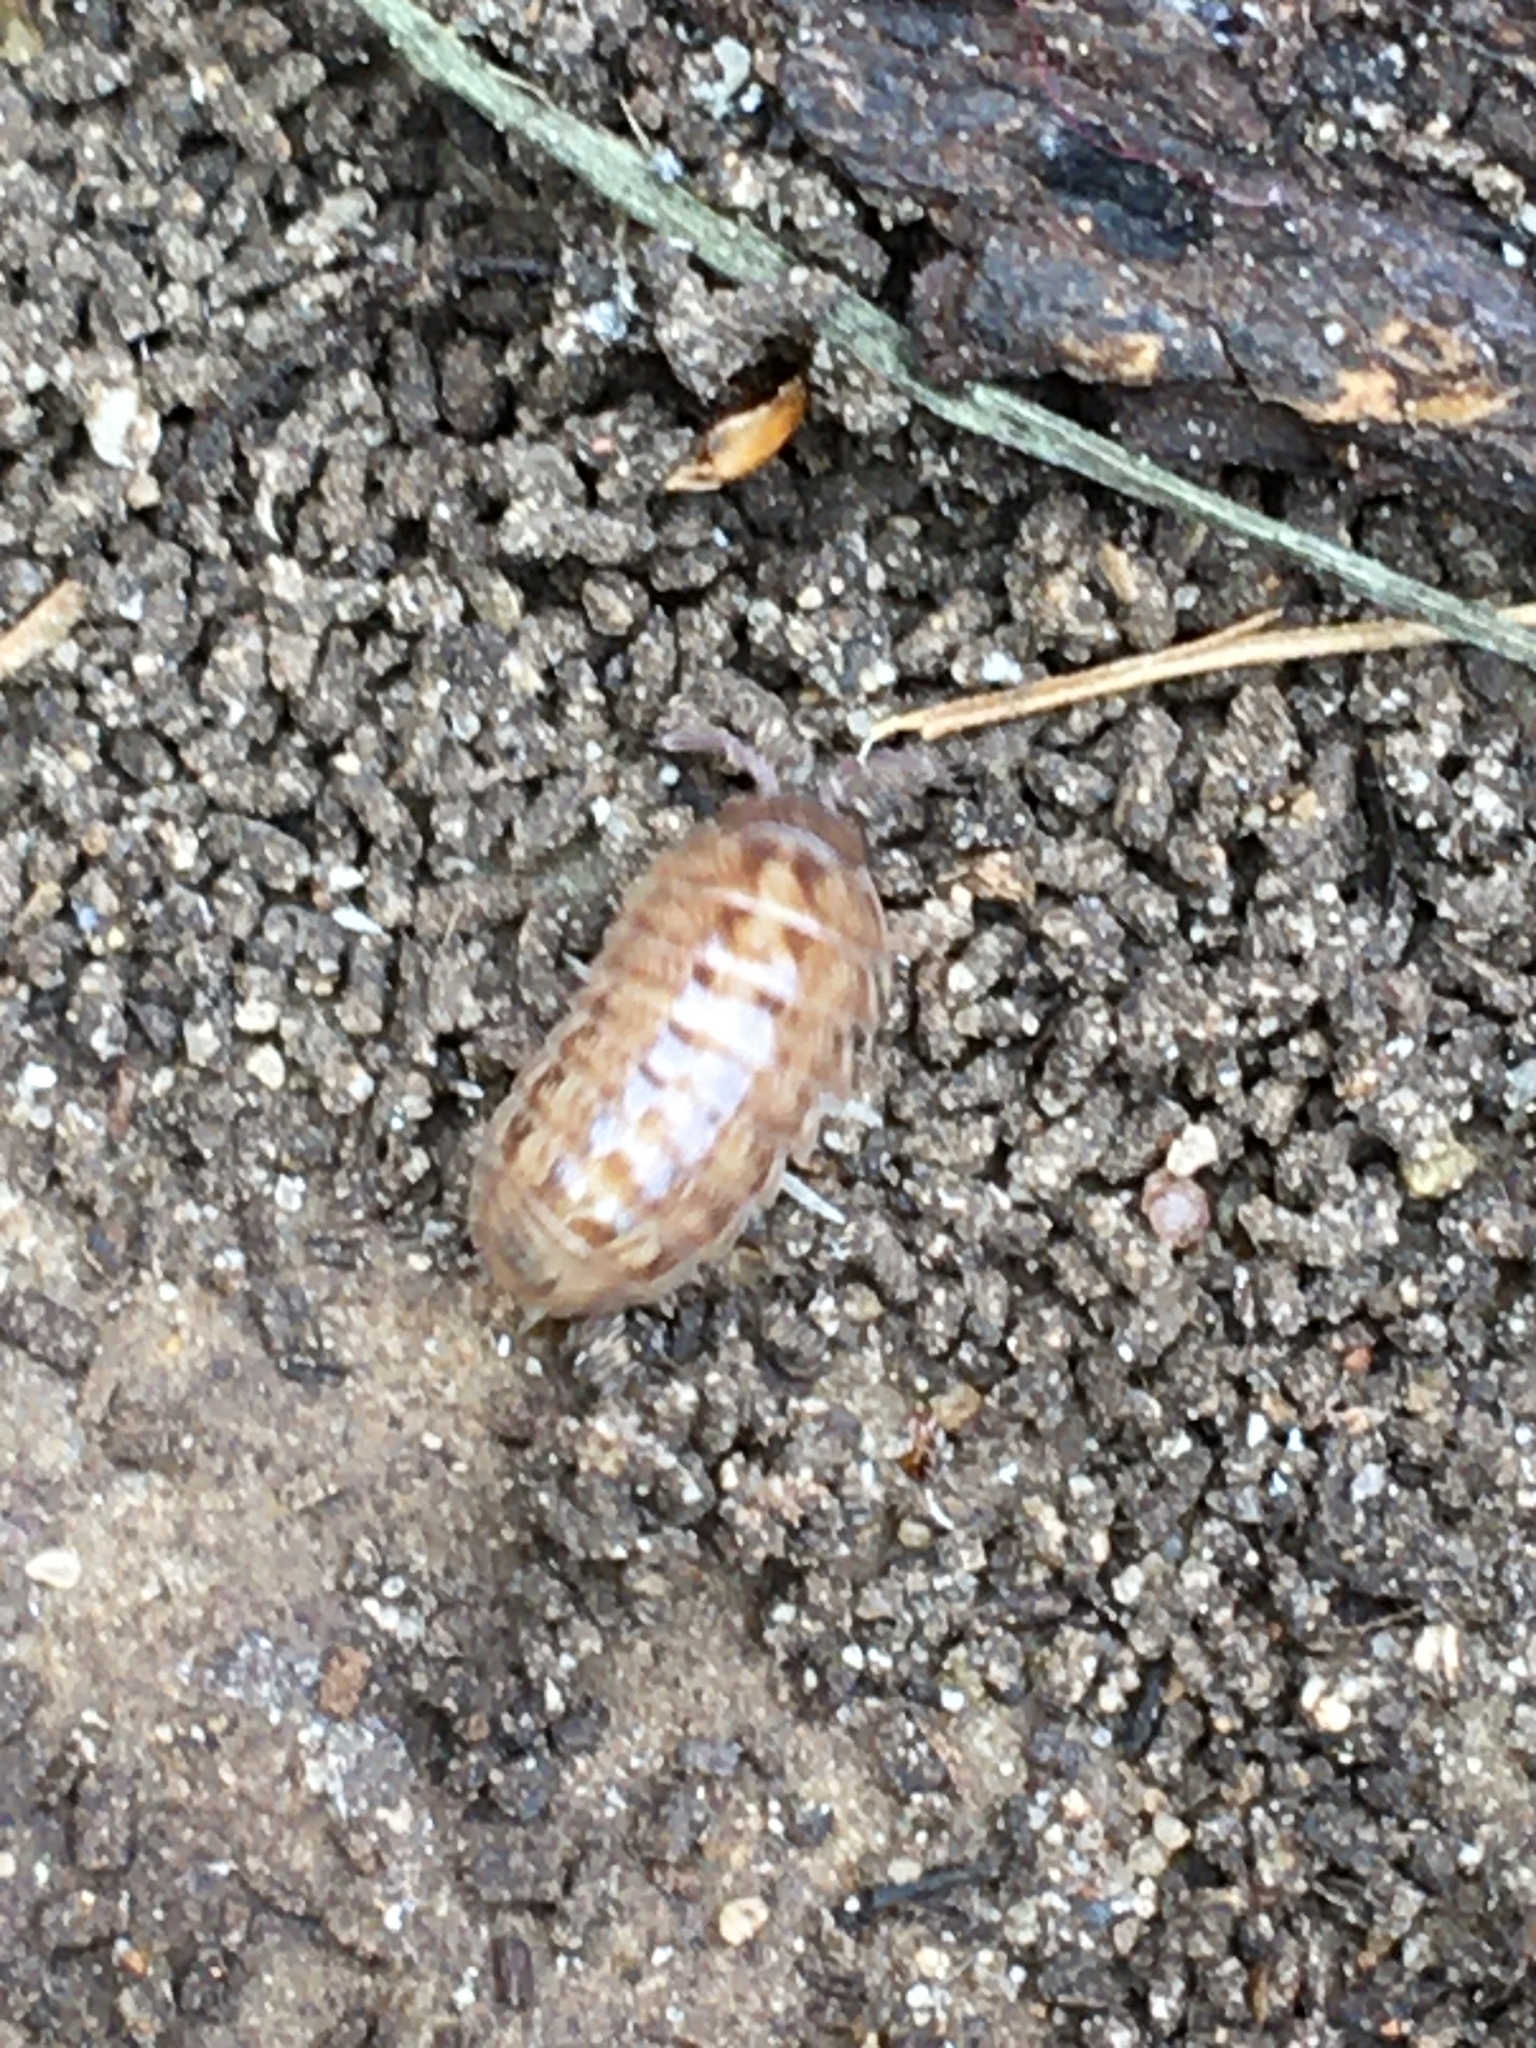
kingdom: Animalia
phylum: Arthropoda
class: Malacostraca
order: Isopoda
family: Armadillidiidae
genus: Armadillidium
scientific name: Armadillidium vulgare
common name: Common pill woodlouse
